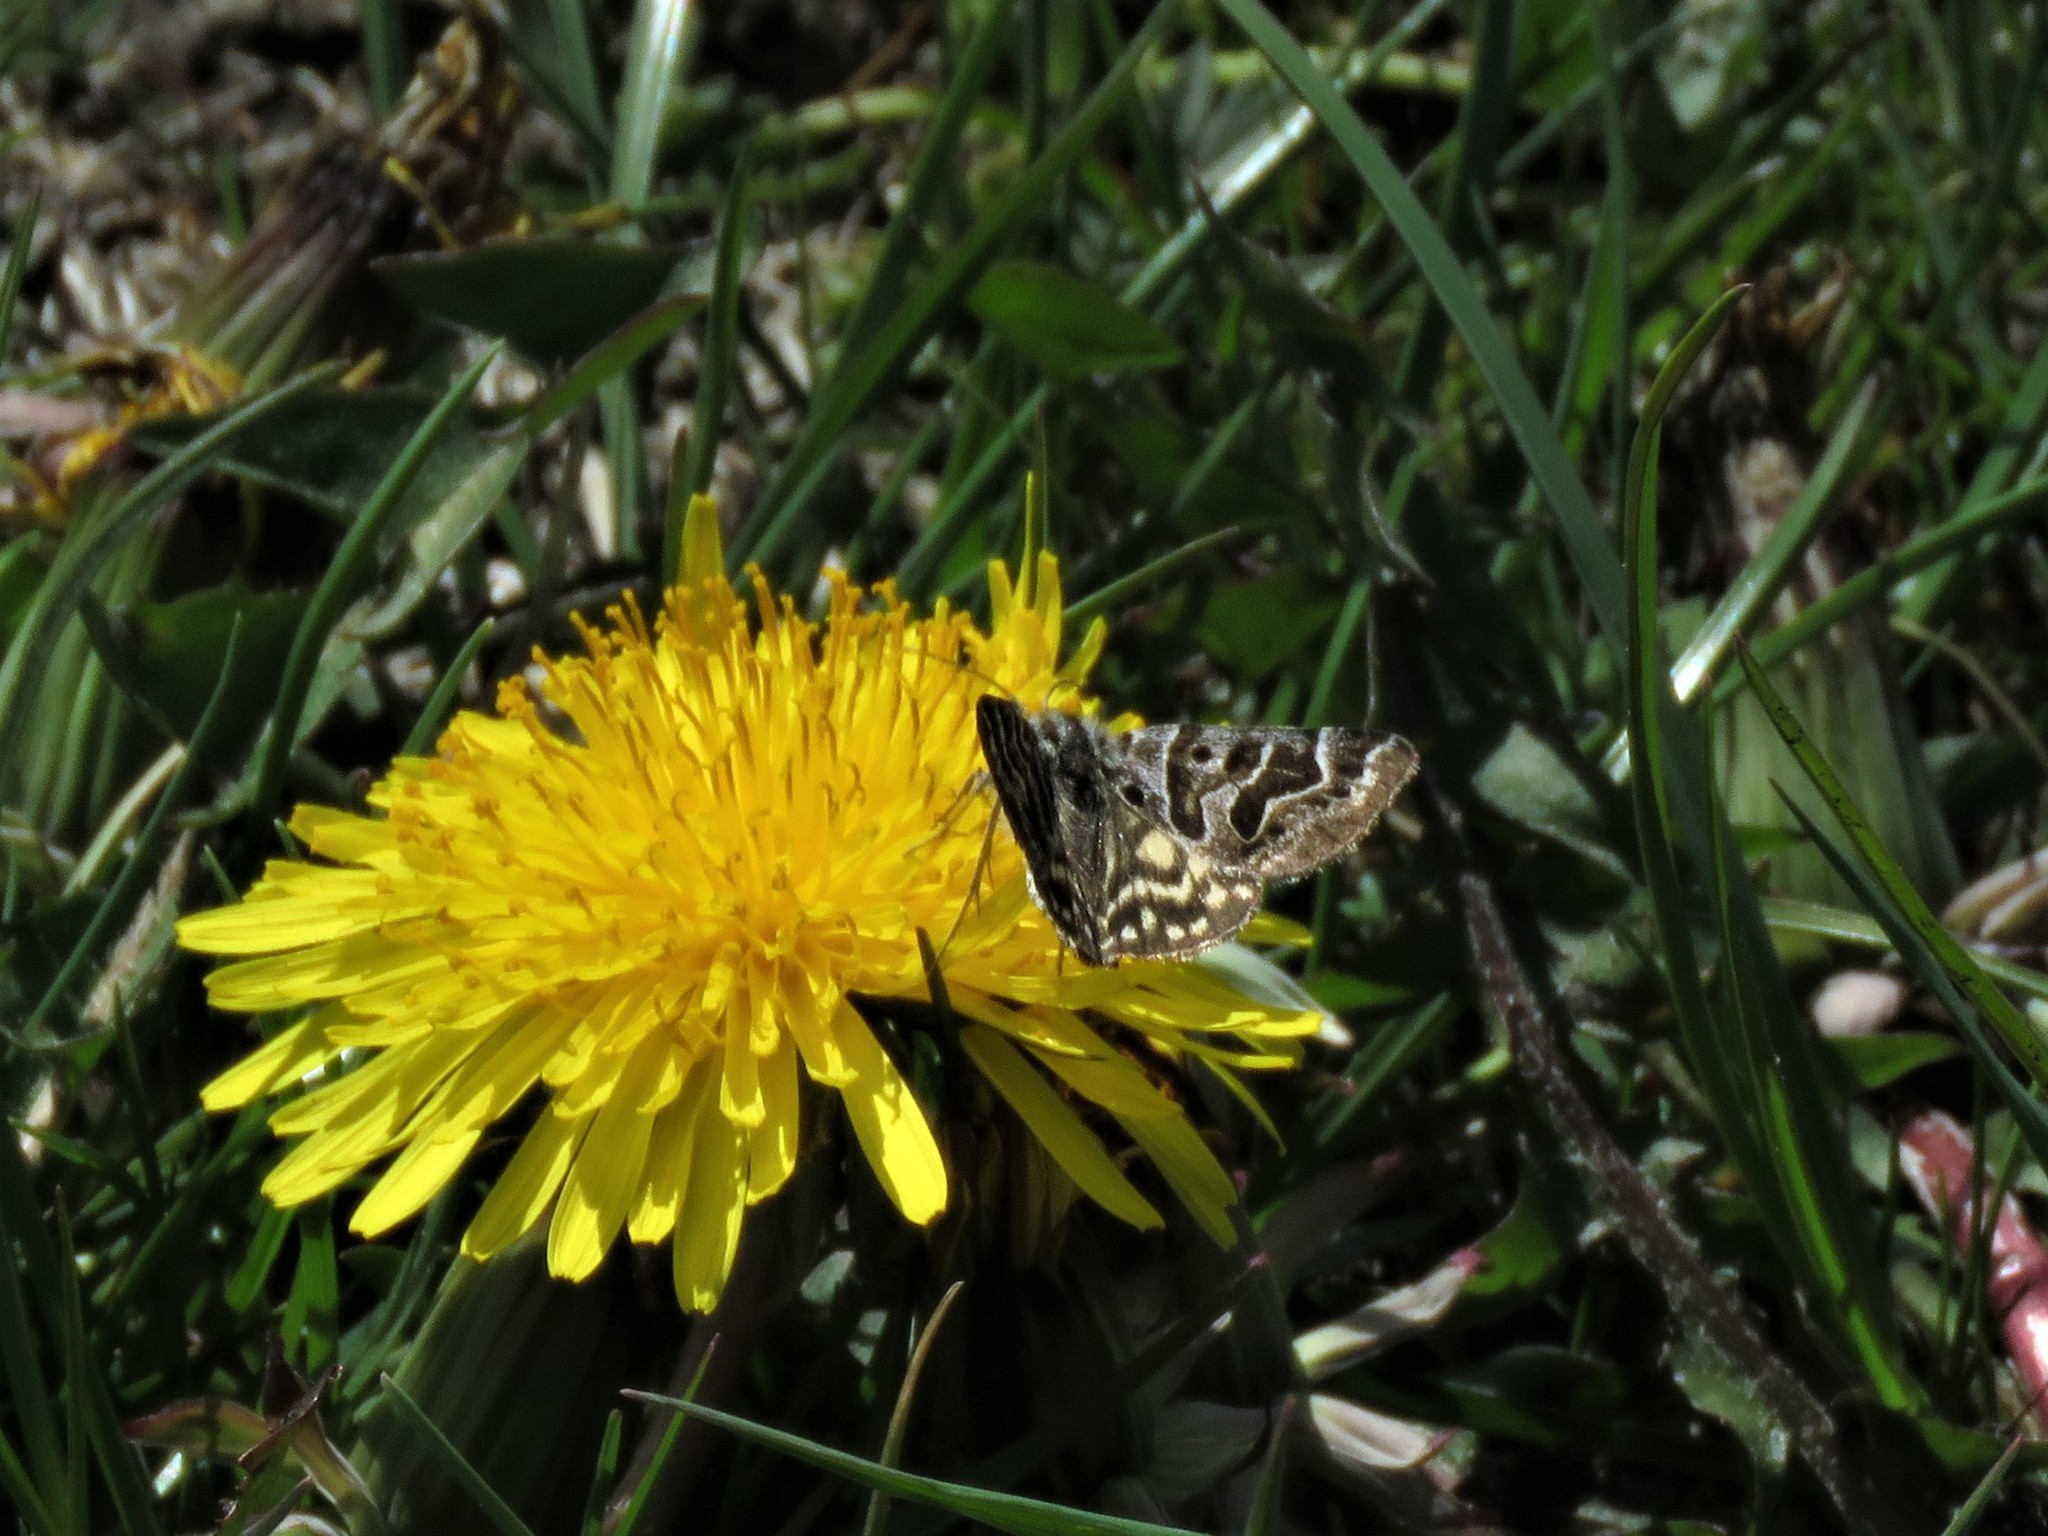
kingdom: Animalia
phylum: Arthropoda
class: Insecta
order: Lepidoptera
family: Erebidae
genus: Callistege
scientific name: Callistege mi
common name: Mother shipton
